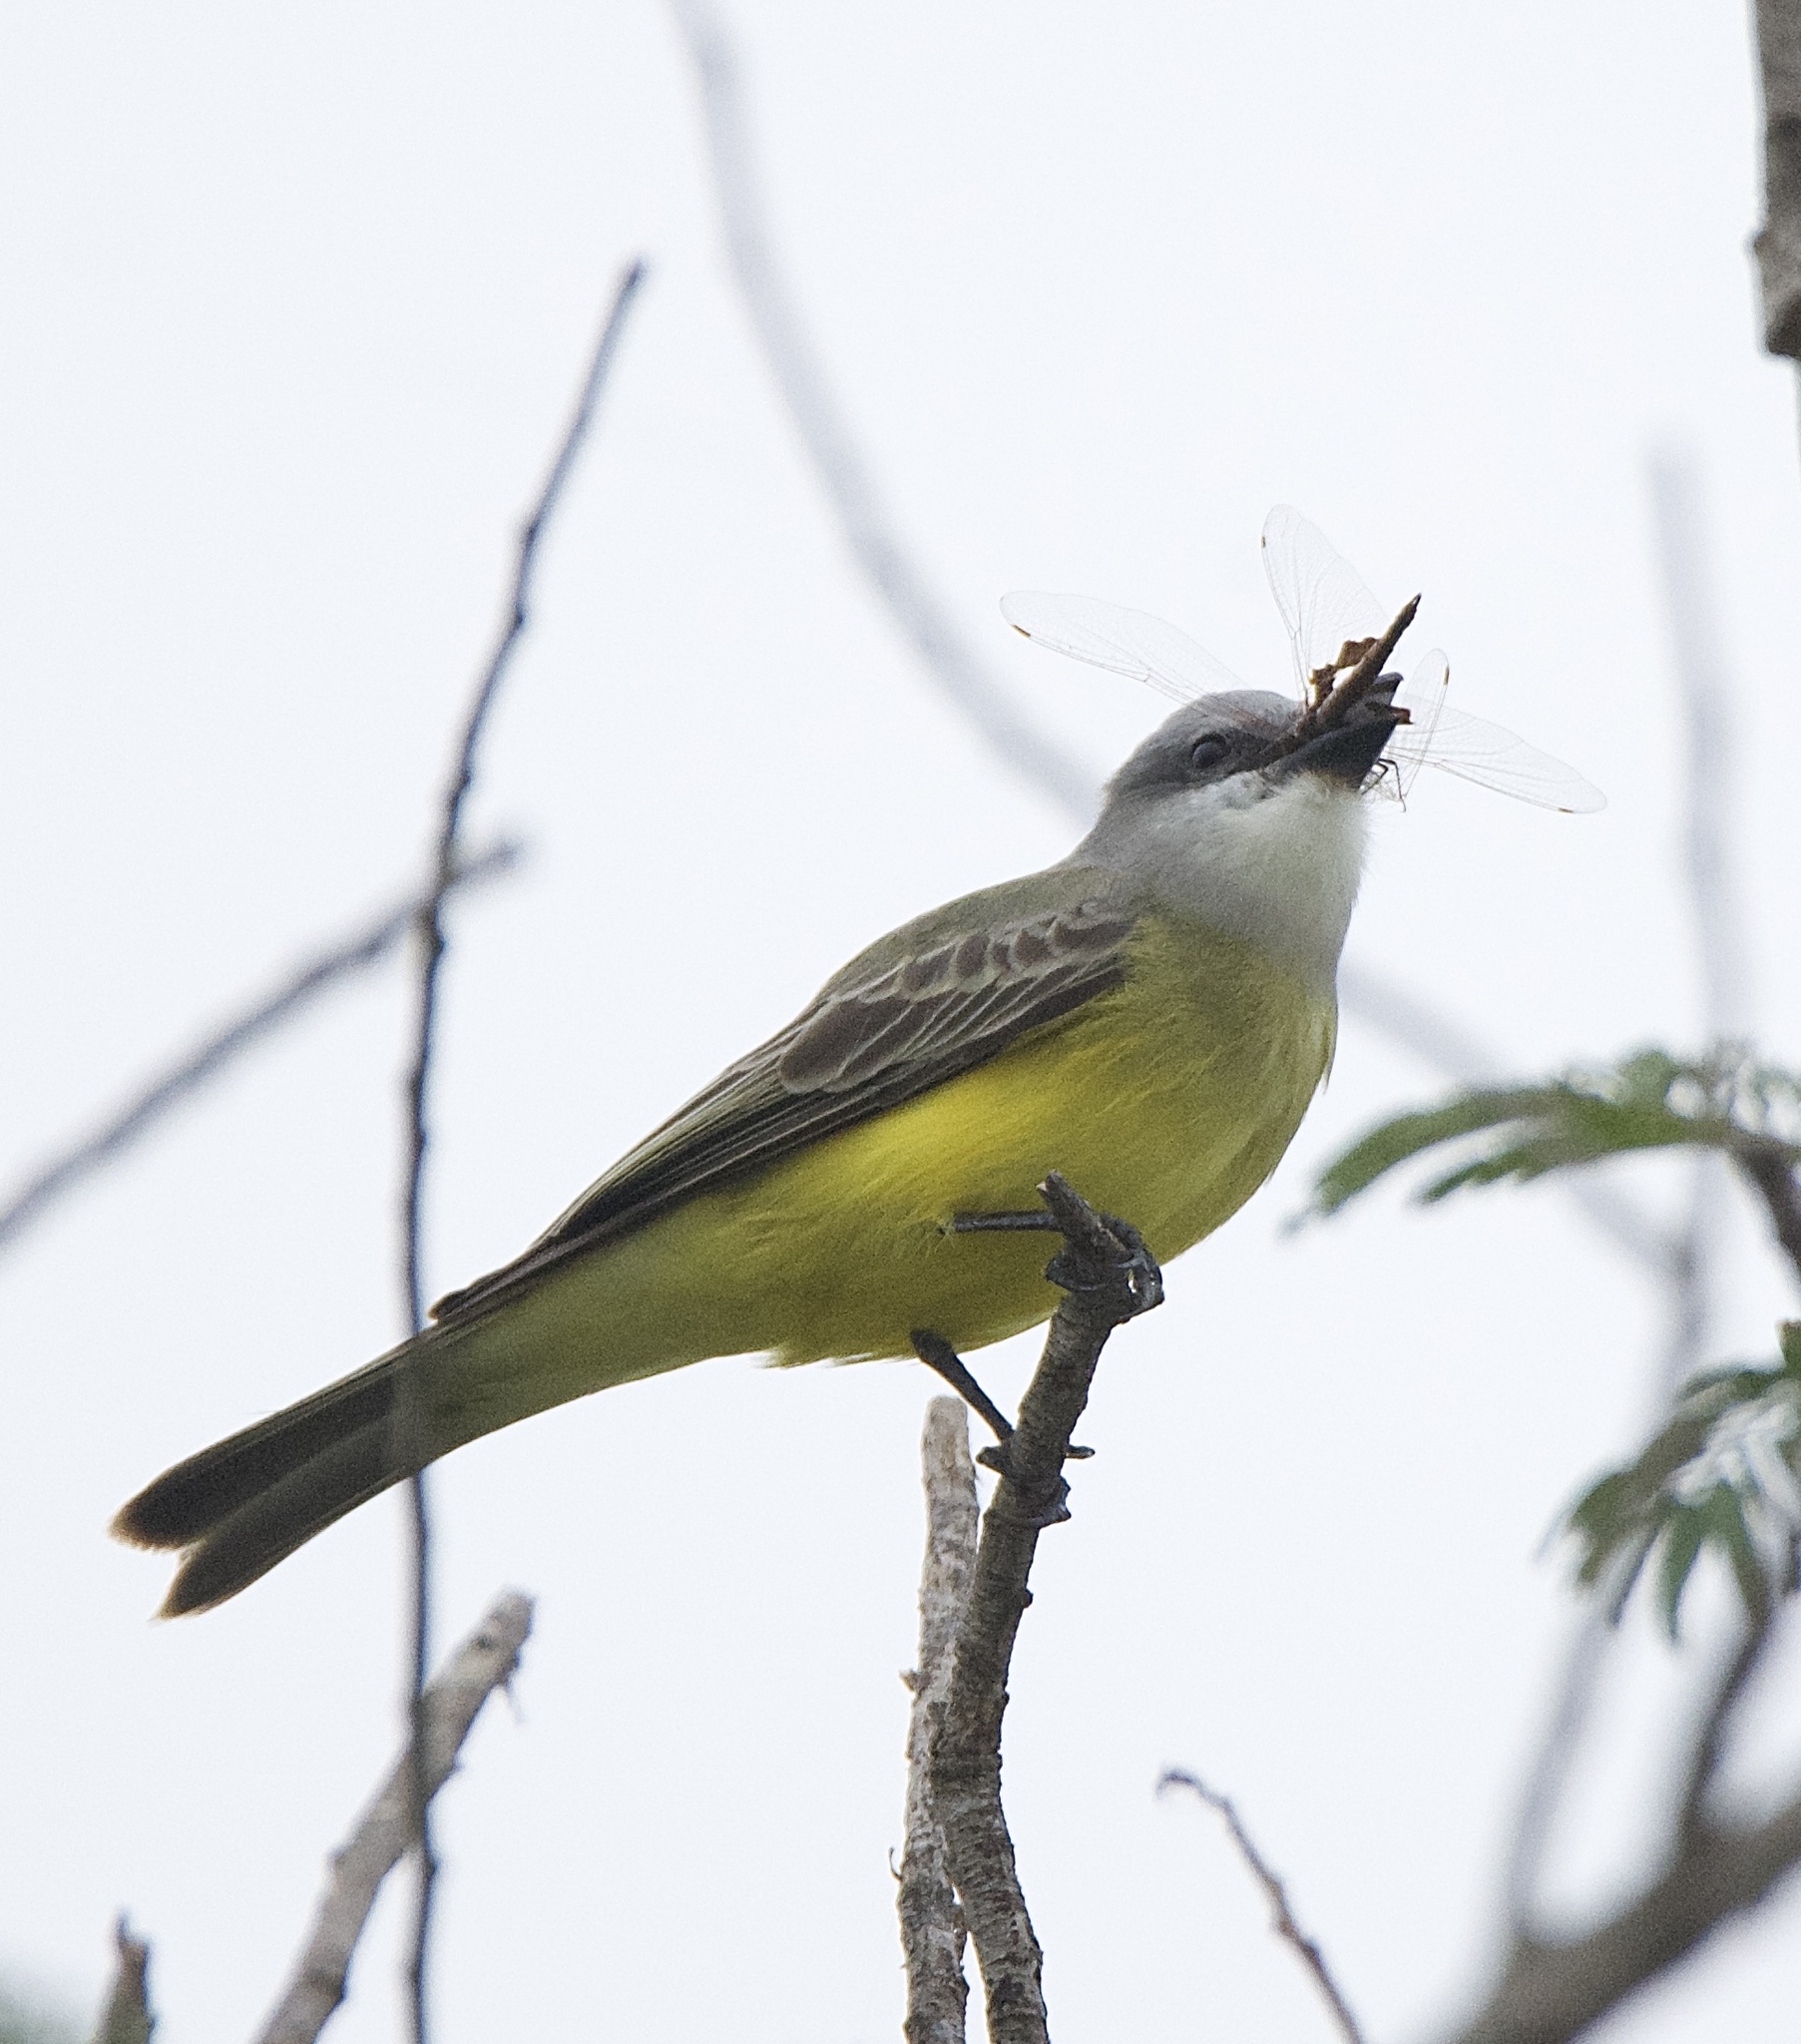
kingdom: Animalia
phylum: Chordata
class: Aves
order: Passeriformes
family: Tyrannidae
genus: Tyrannus
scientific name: Tyrannus couchii
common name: Couch's kingbird
